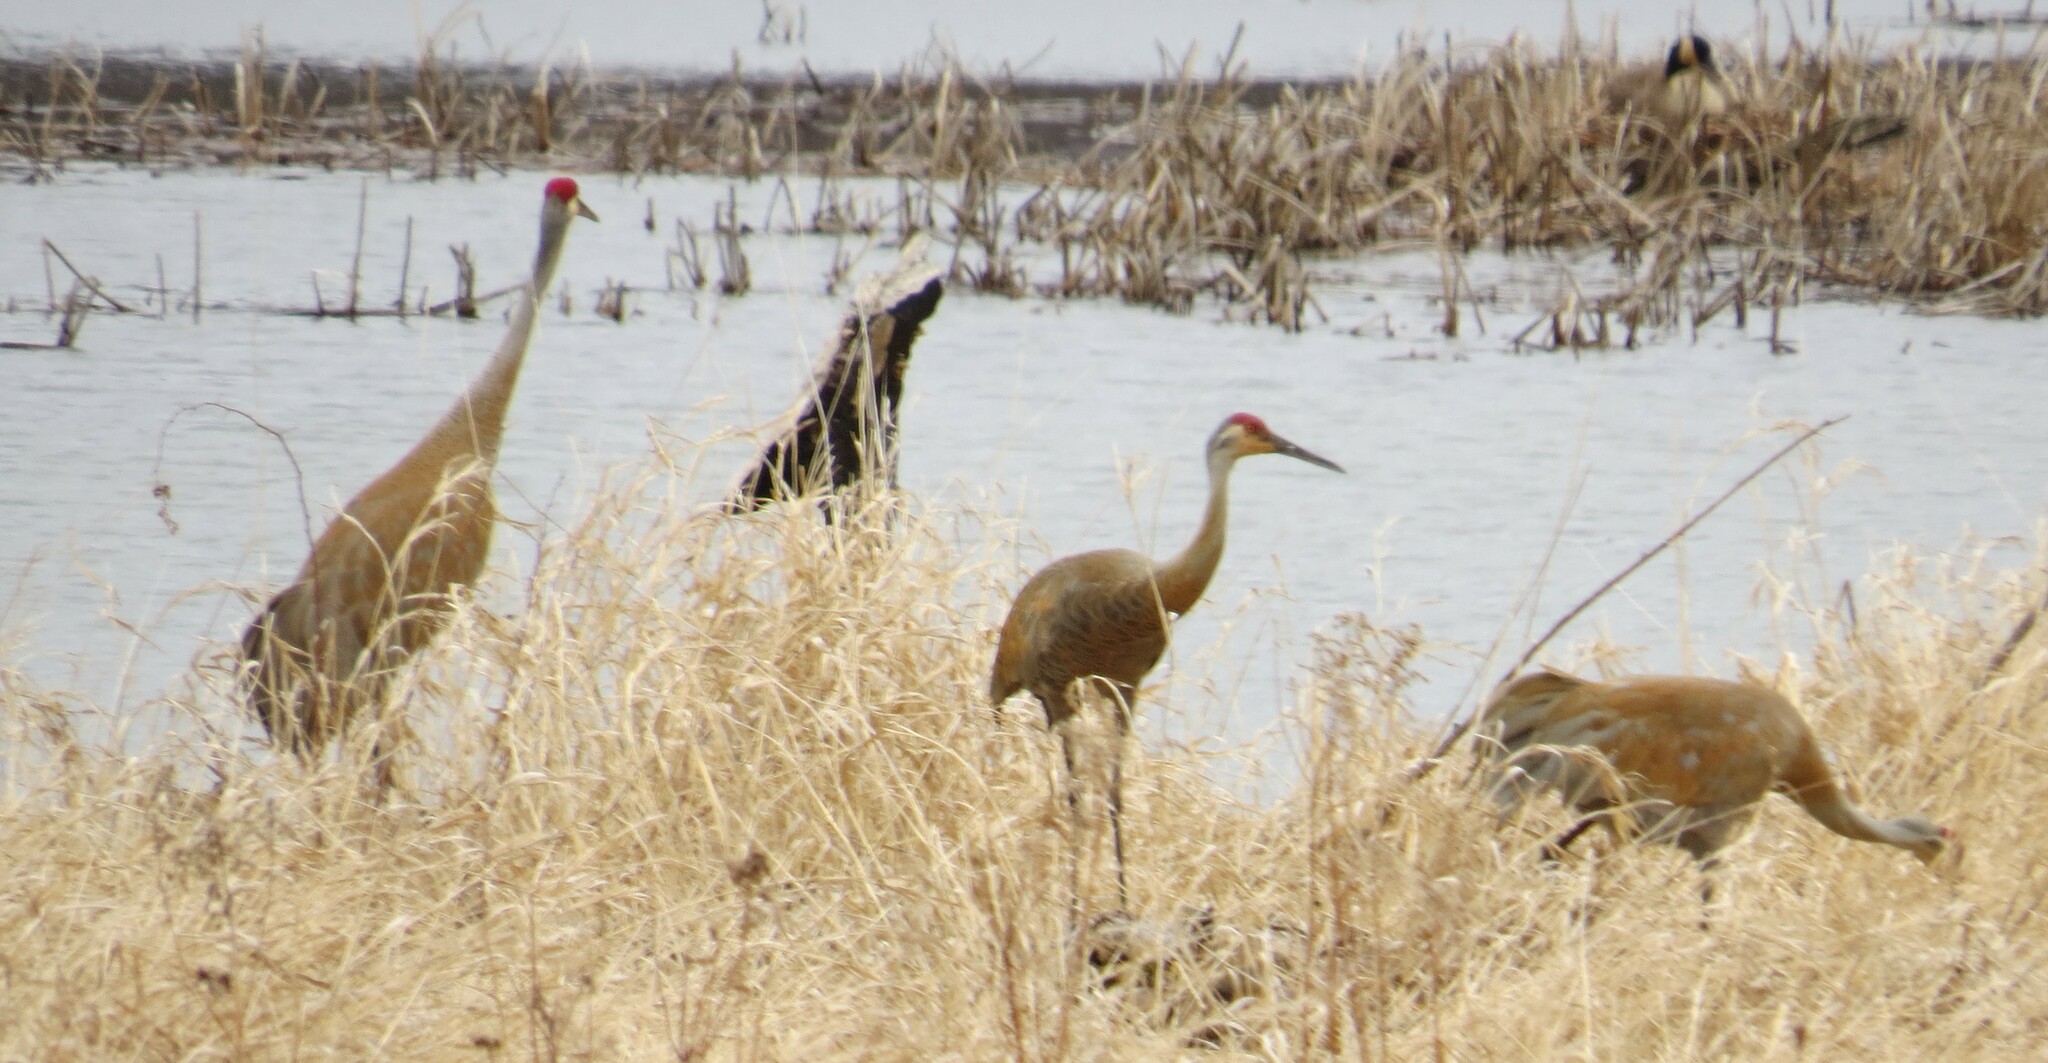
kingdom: Animalia
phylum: Chordata
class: Aves
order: Gruiformes
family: Gruidae
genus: Grus
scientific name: Grus canadensis
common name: Sandhill crane
